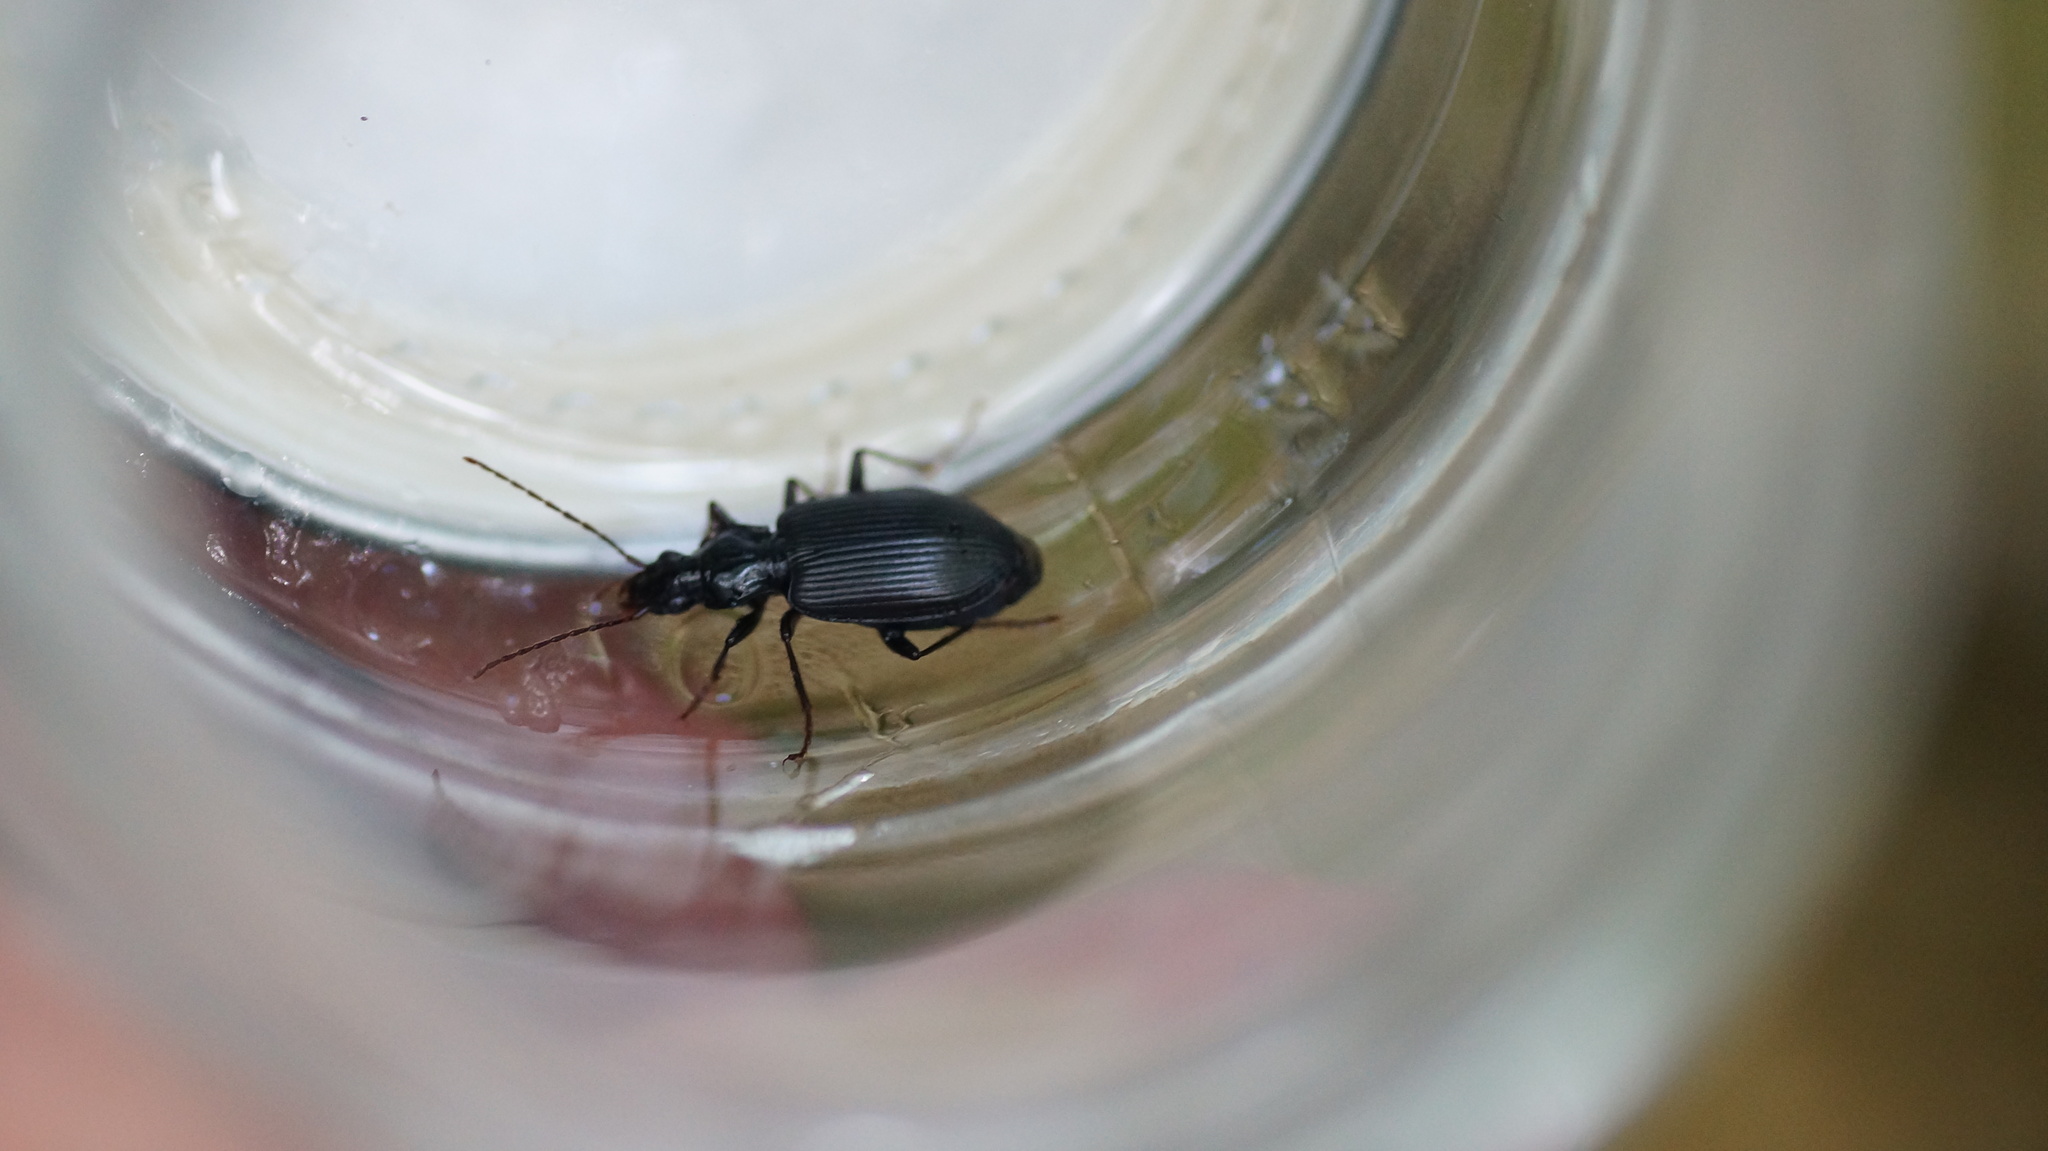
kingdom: Animalia
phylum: Arthropoda
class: Insecta
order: Coleoptera
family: Carabidae
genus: Platynus
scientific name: Platynus assimilis
